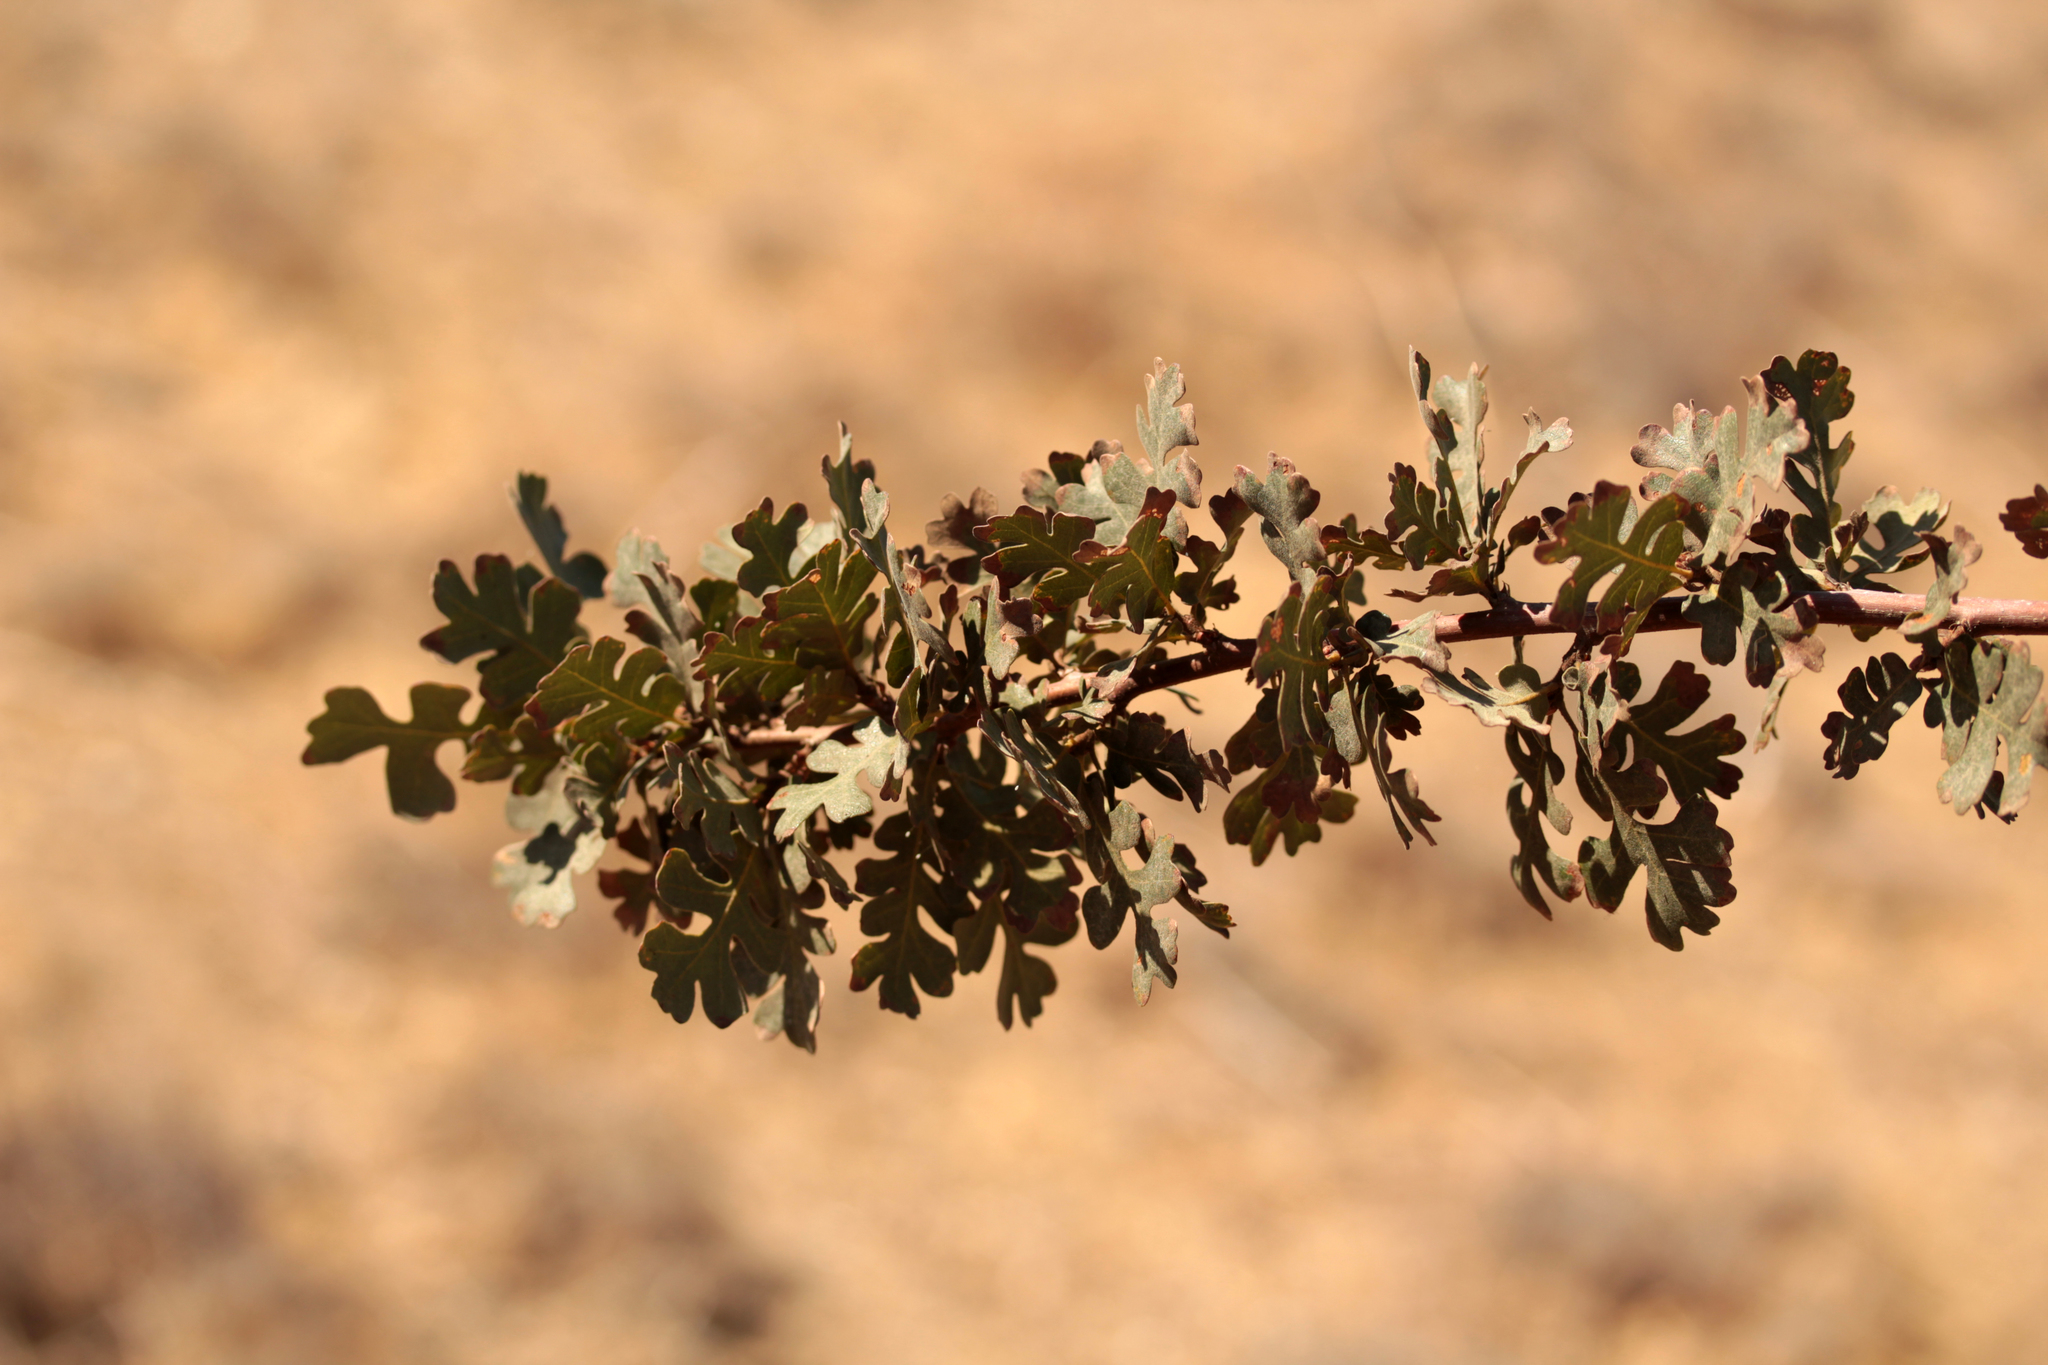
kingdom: Plantae
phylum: Tracheophyta
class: Magnoliopsida
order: Fagales
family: Fagaceae
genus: Quercus
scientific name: Quercus lobata
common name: Valley oak
